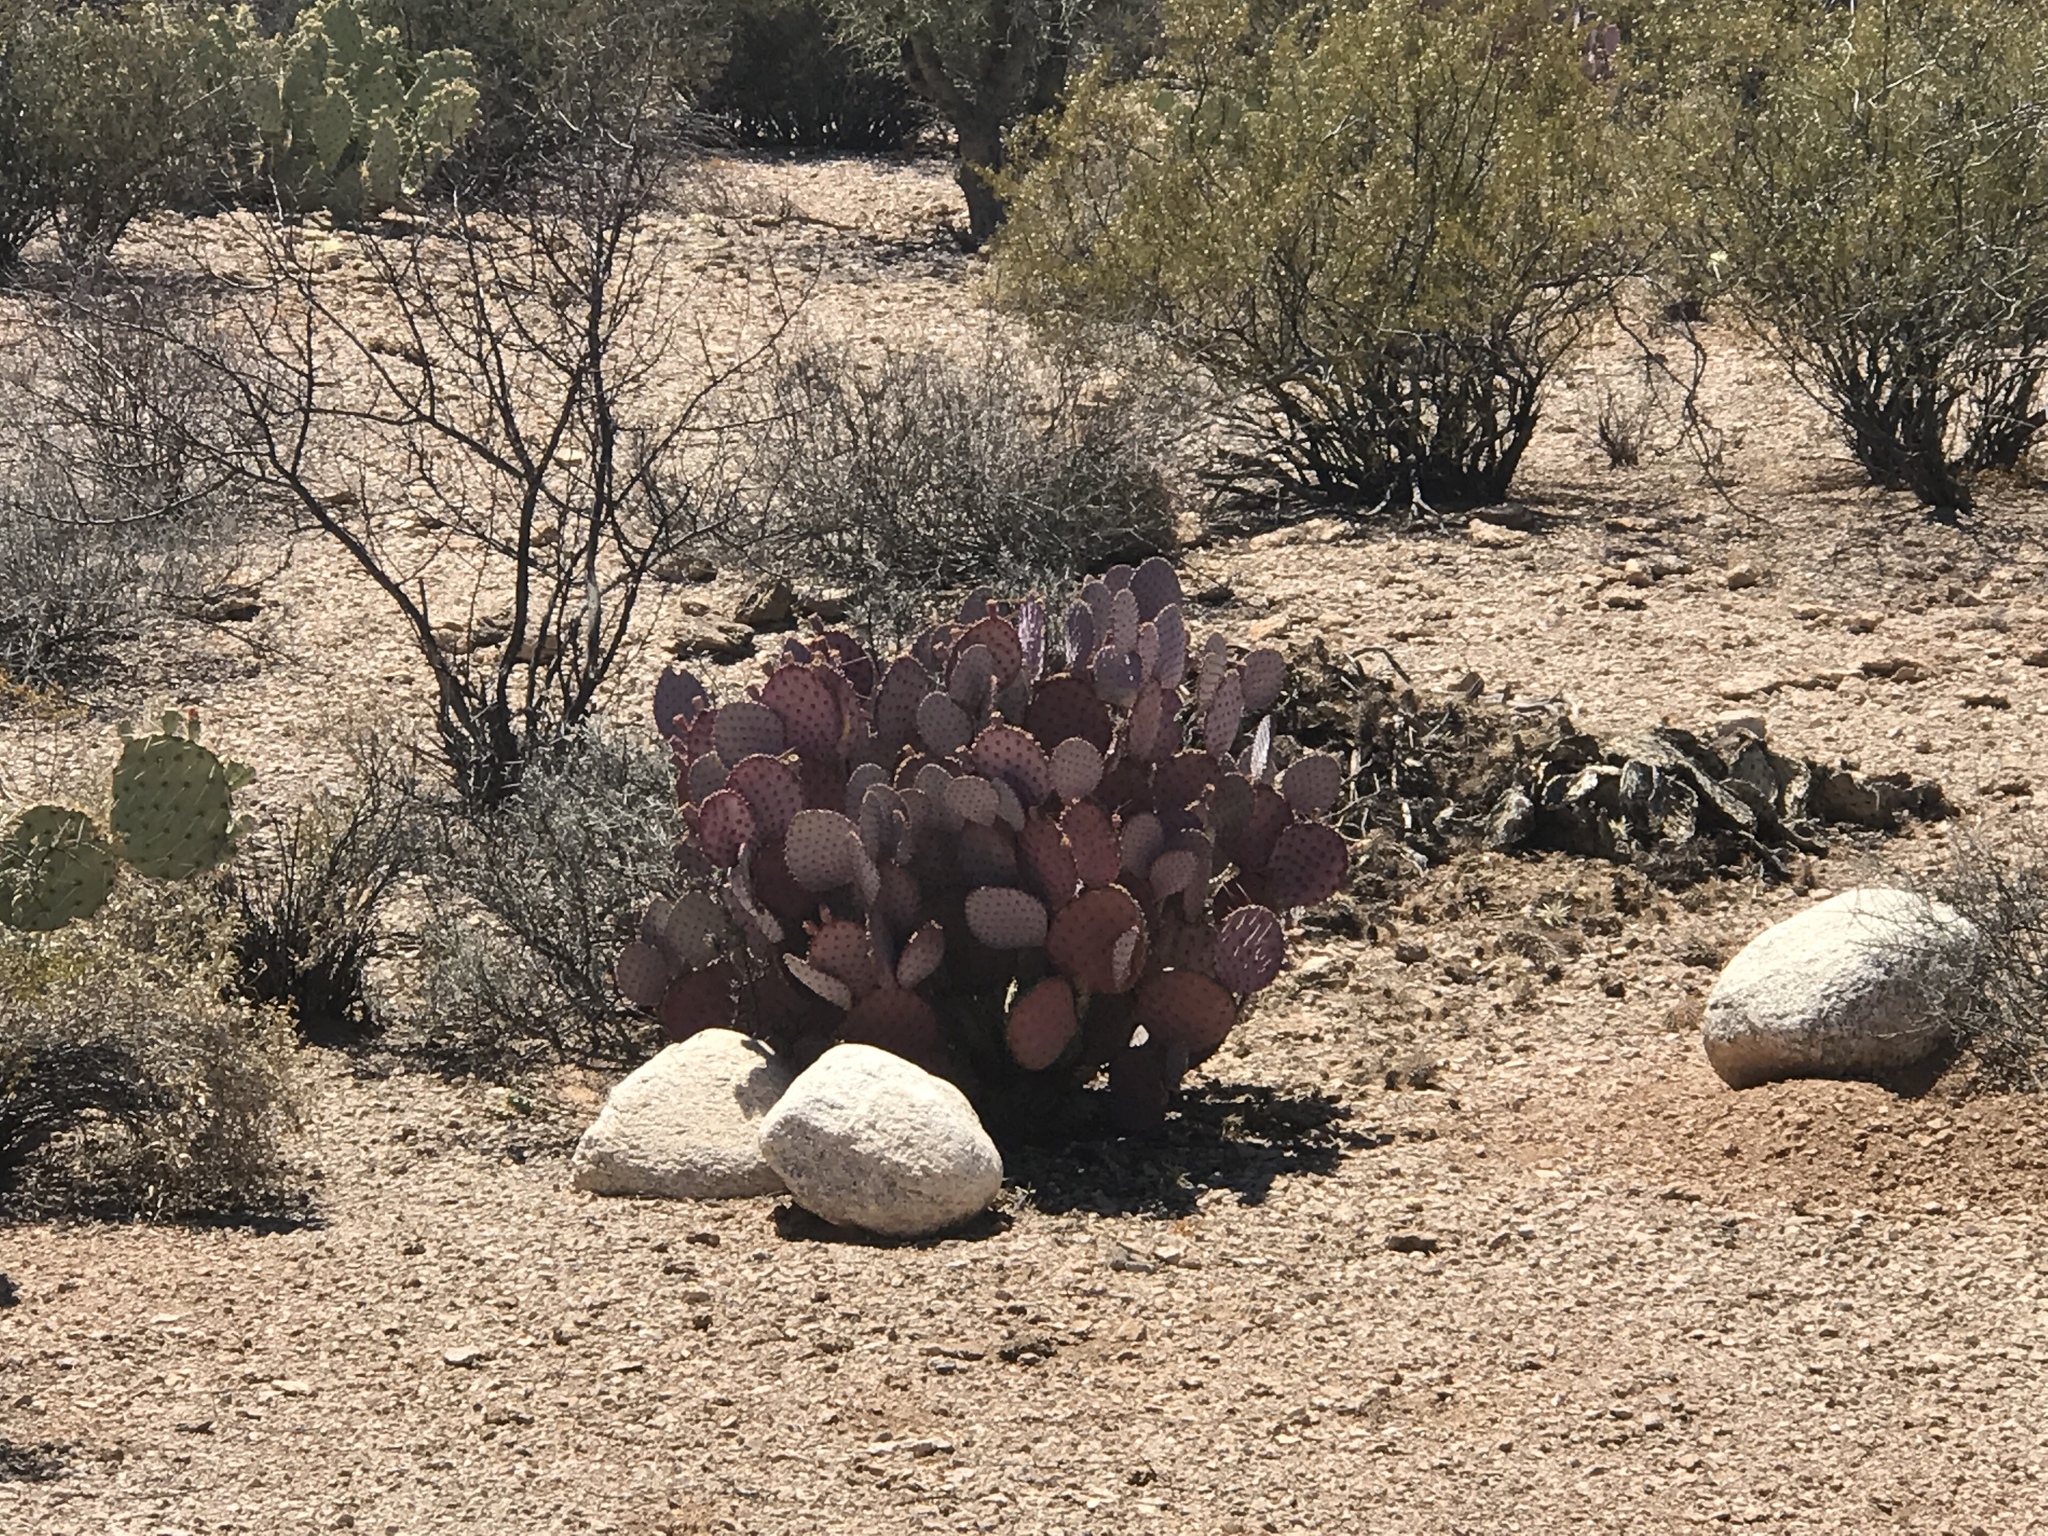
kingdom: Plantae
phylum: Tracheophyta
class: Magnoliopsida
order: Caryophyllales
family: Cactaceae
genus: Opuntia
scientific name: Opuntia gosseliniana
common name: Violet prickly-pear
